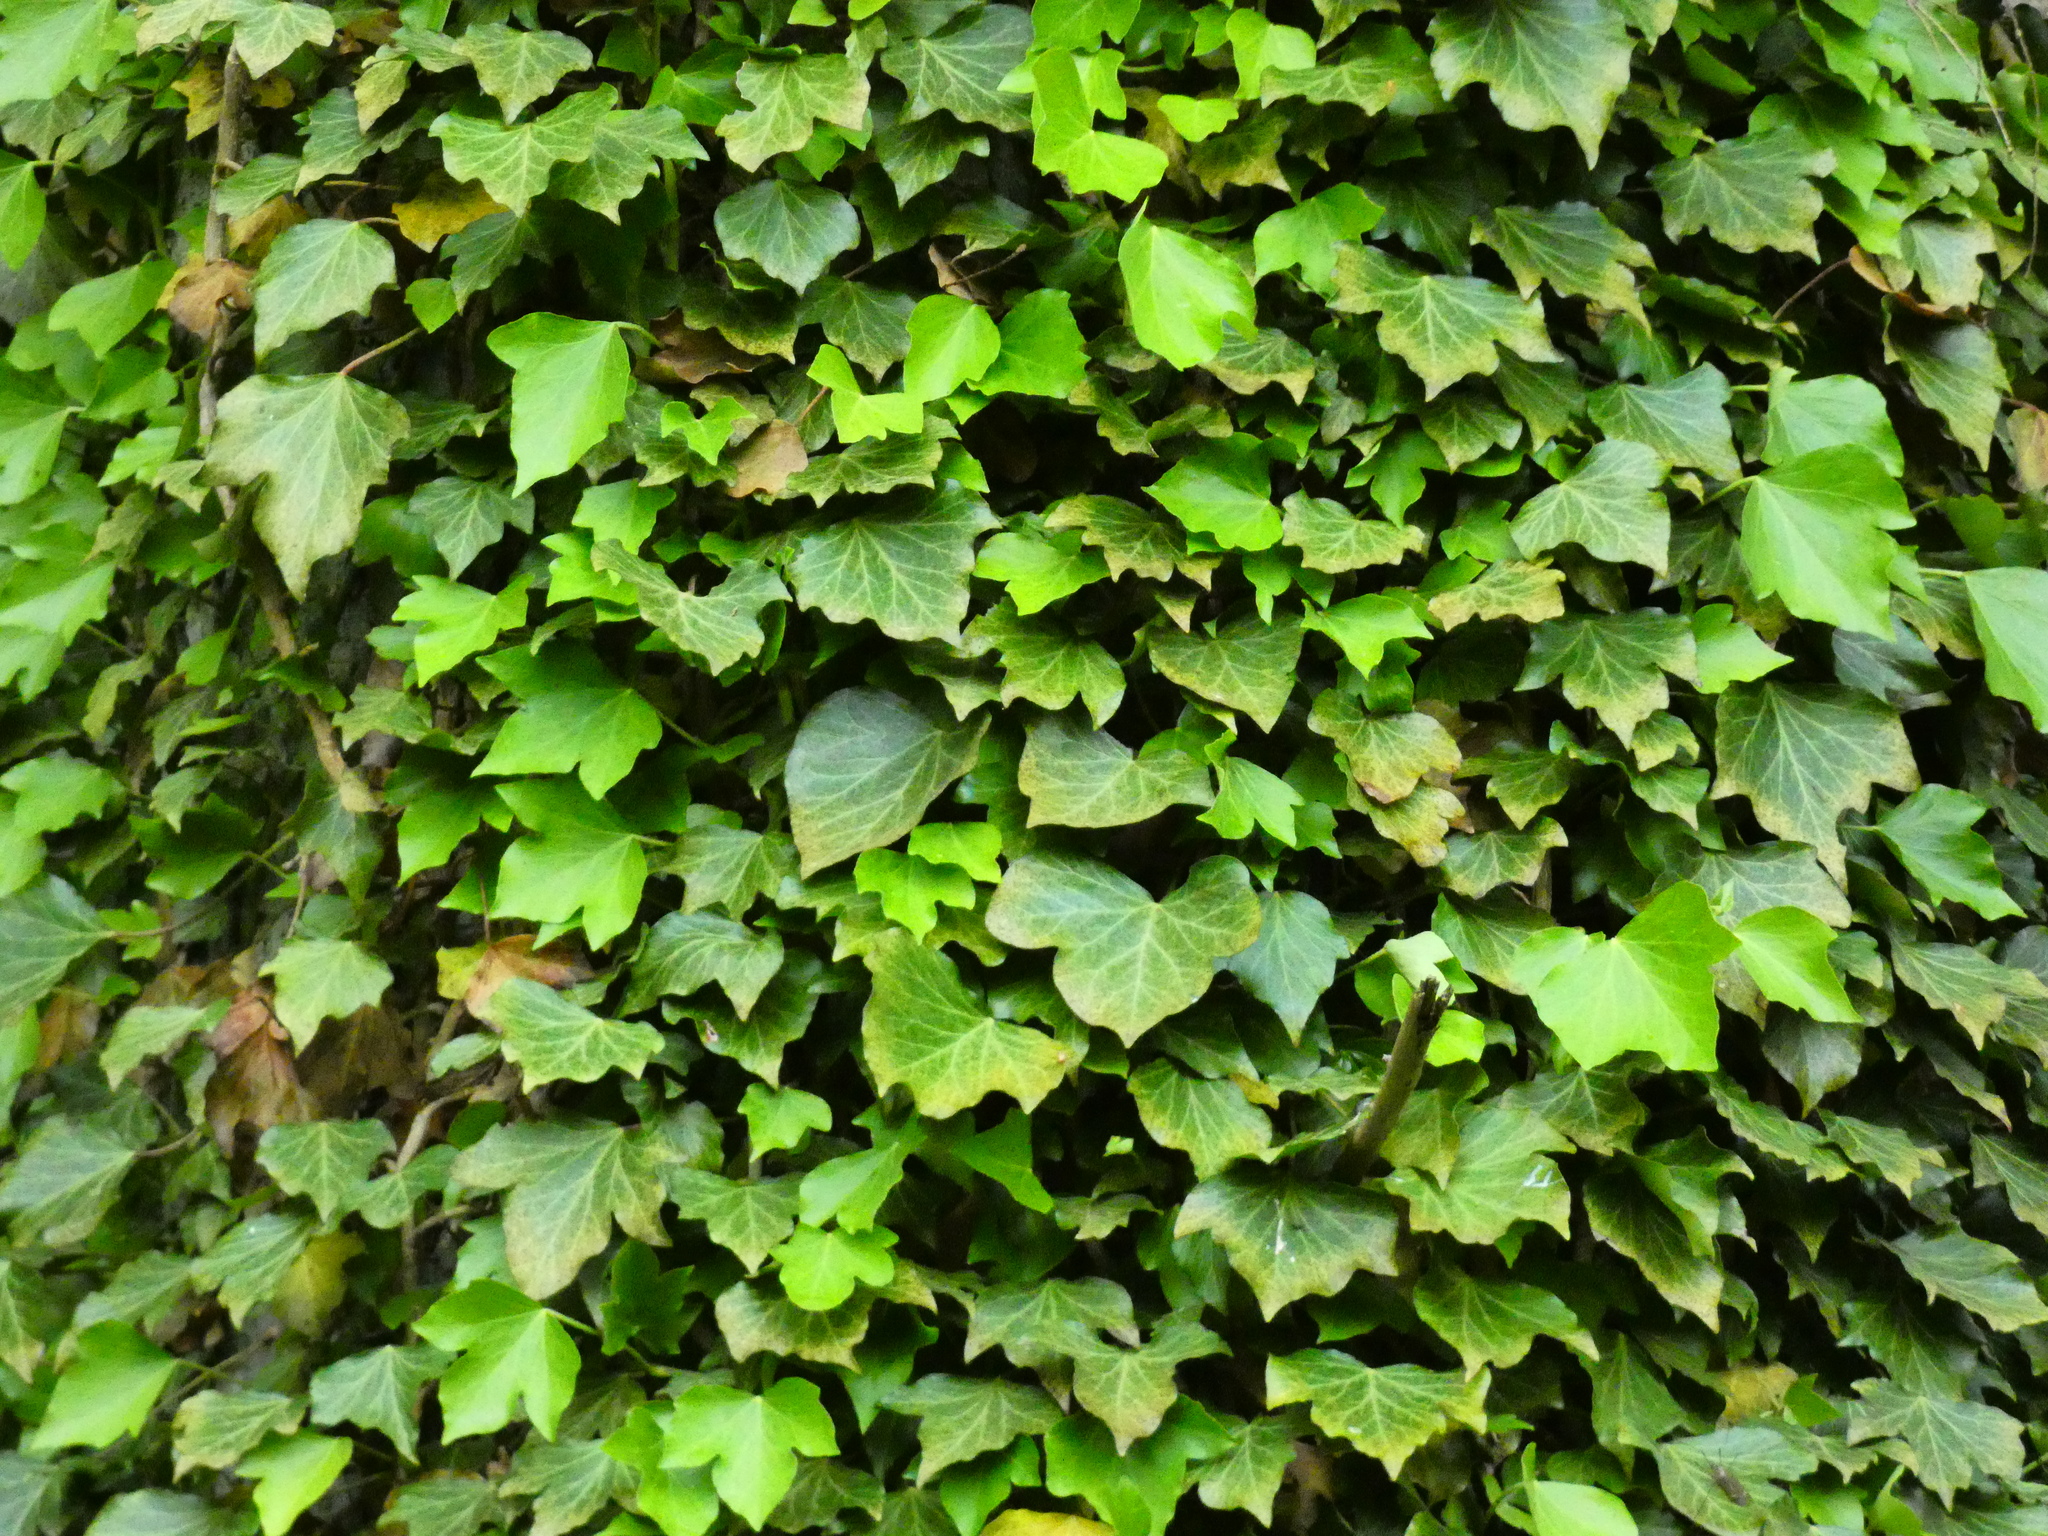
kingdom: Plantae
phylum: Tracheophyta
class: Magnoliopsida
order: Apiales
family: Araliaceae
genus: Hedera
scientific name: Hedera helix
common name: Ivy
